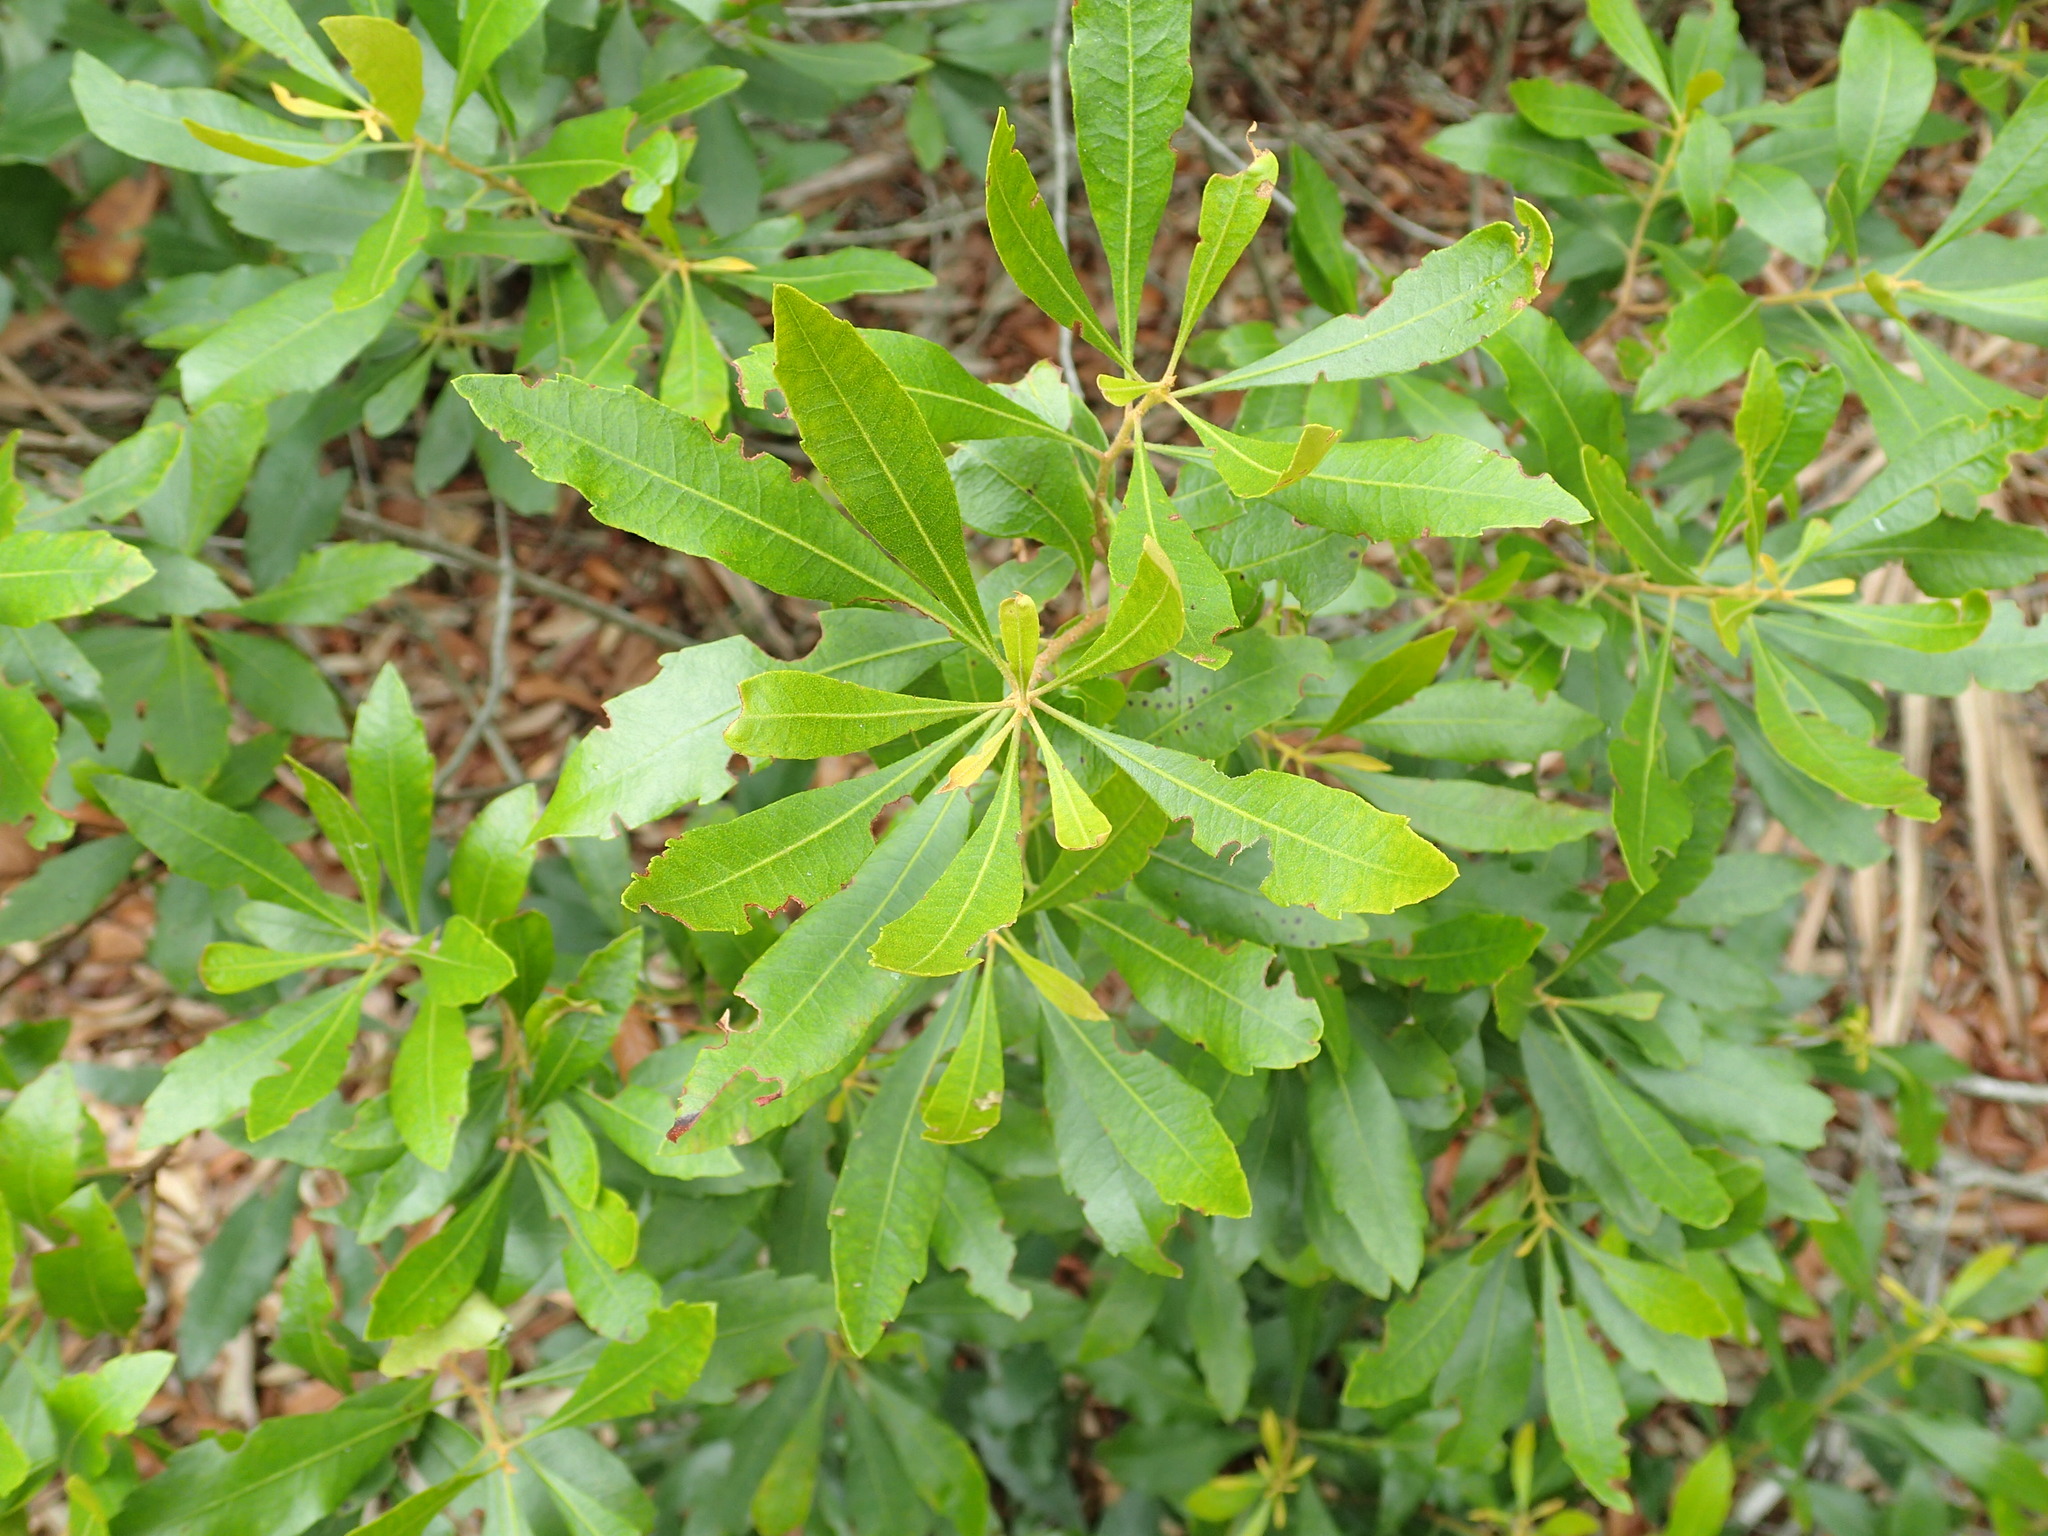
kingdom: Plantae
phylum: Tracheophyta
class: Magnoliopsida
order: Fagales
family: Myricaceae
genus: Morella
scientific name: Morella cerifera
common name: Wax myrtle
